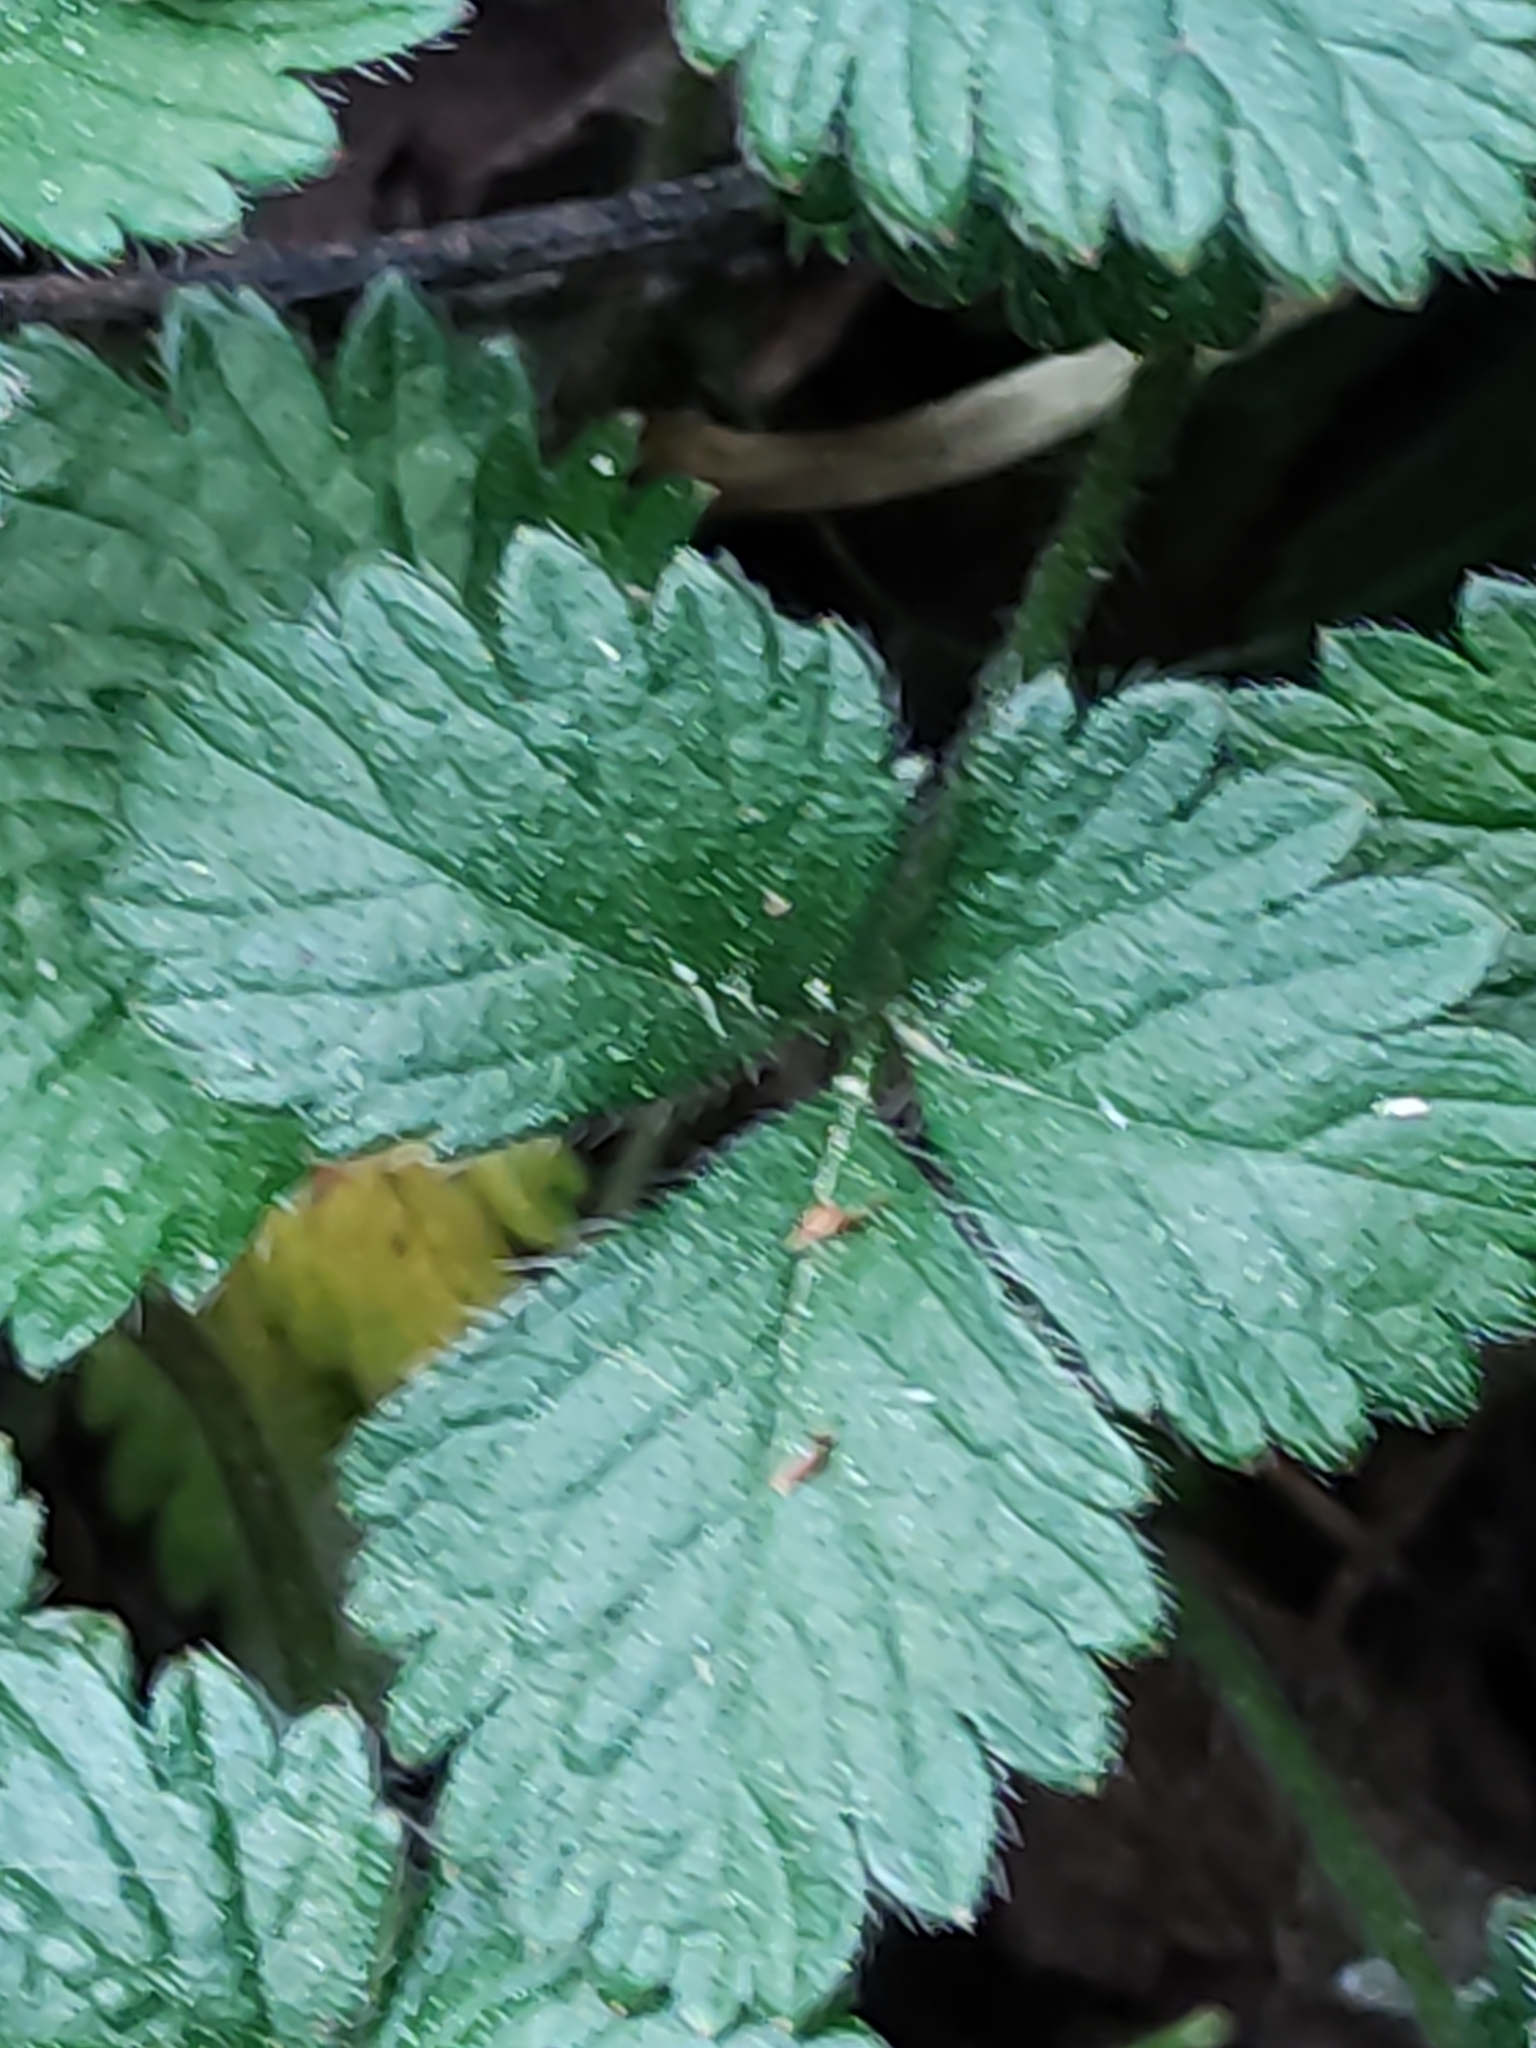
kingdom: Plantae
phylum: Tracheophyta
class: Magnoliopsida
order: Rosales
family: Rosaceae
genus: Potentilla
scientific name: Potentilla indica
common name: Yellow-flowered strawberry
